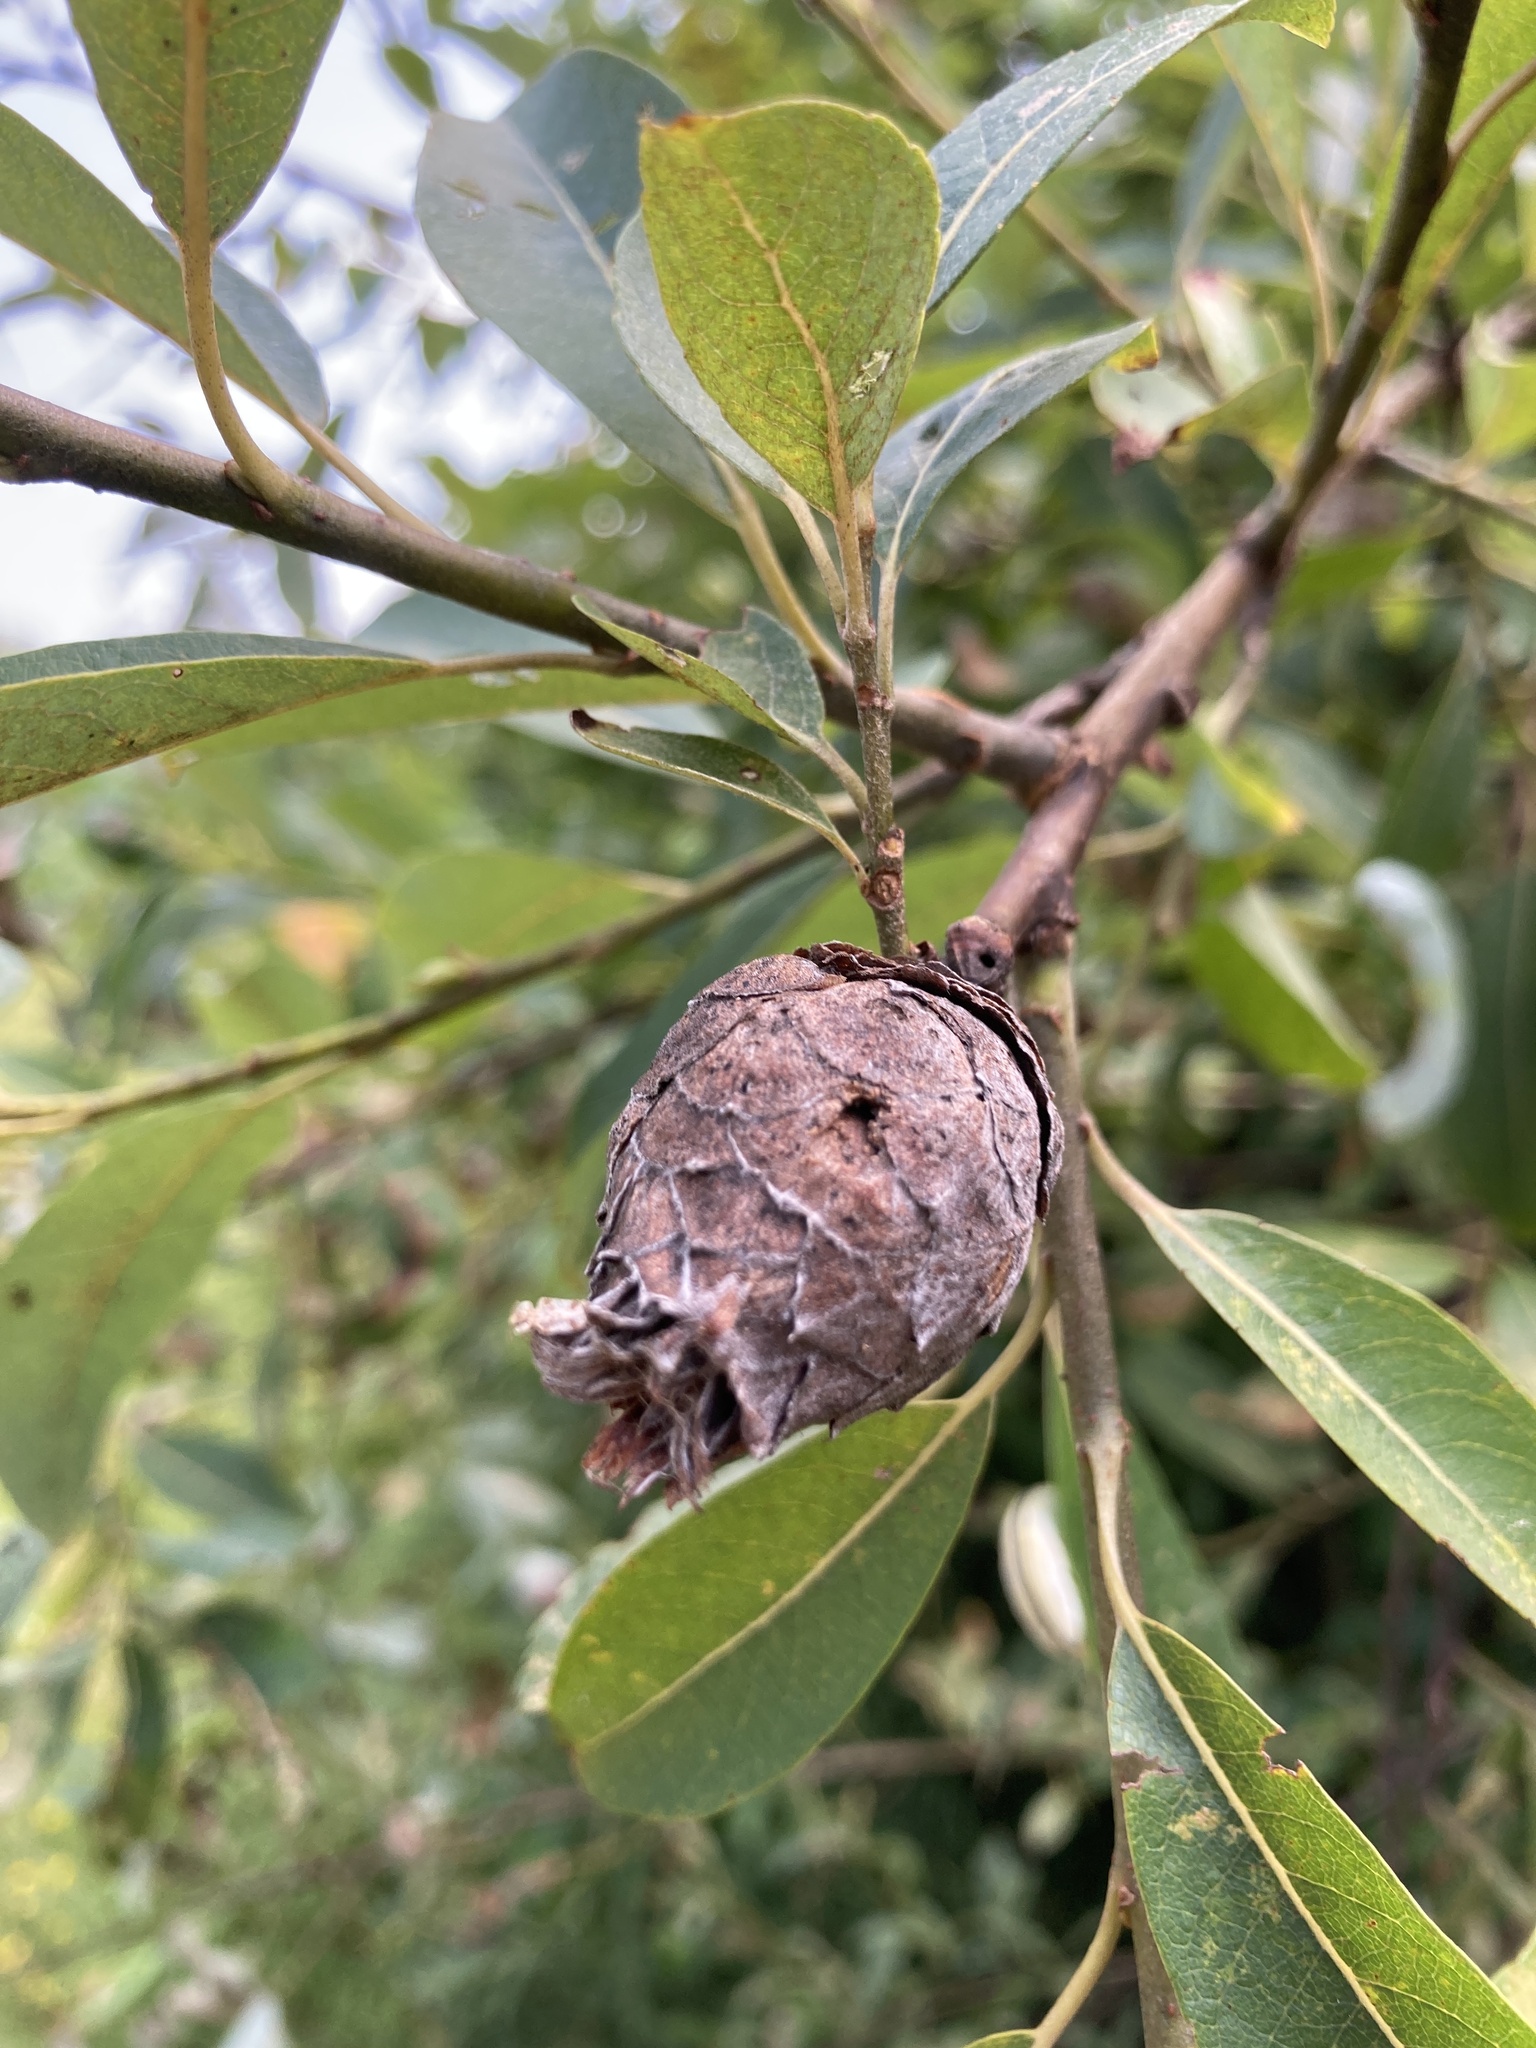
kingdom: Animalia
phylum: Arthropoda
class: Insecta
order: Diptera
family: Cecidomyiidae
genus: Rabdophaga
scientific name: Rabdophaga strobiloides
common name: Willow pinecone gall midge
